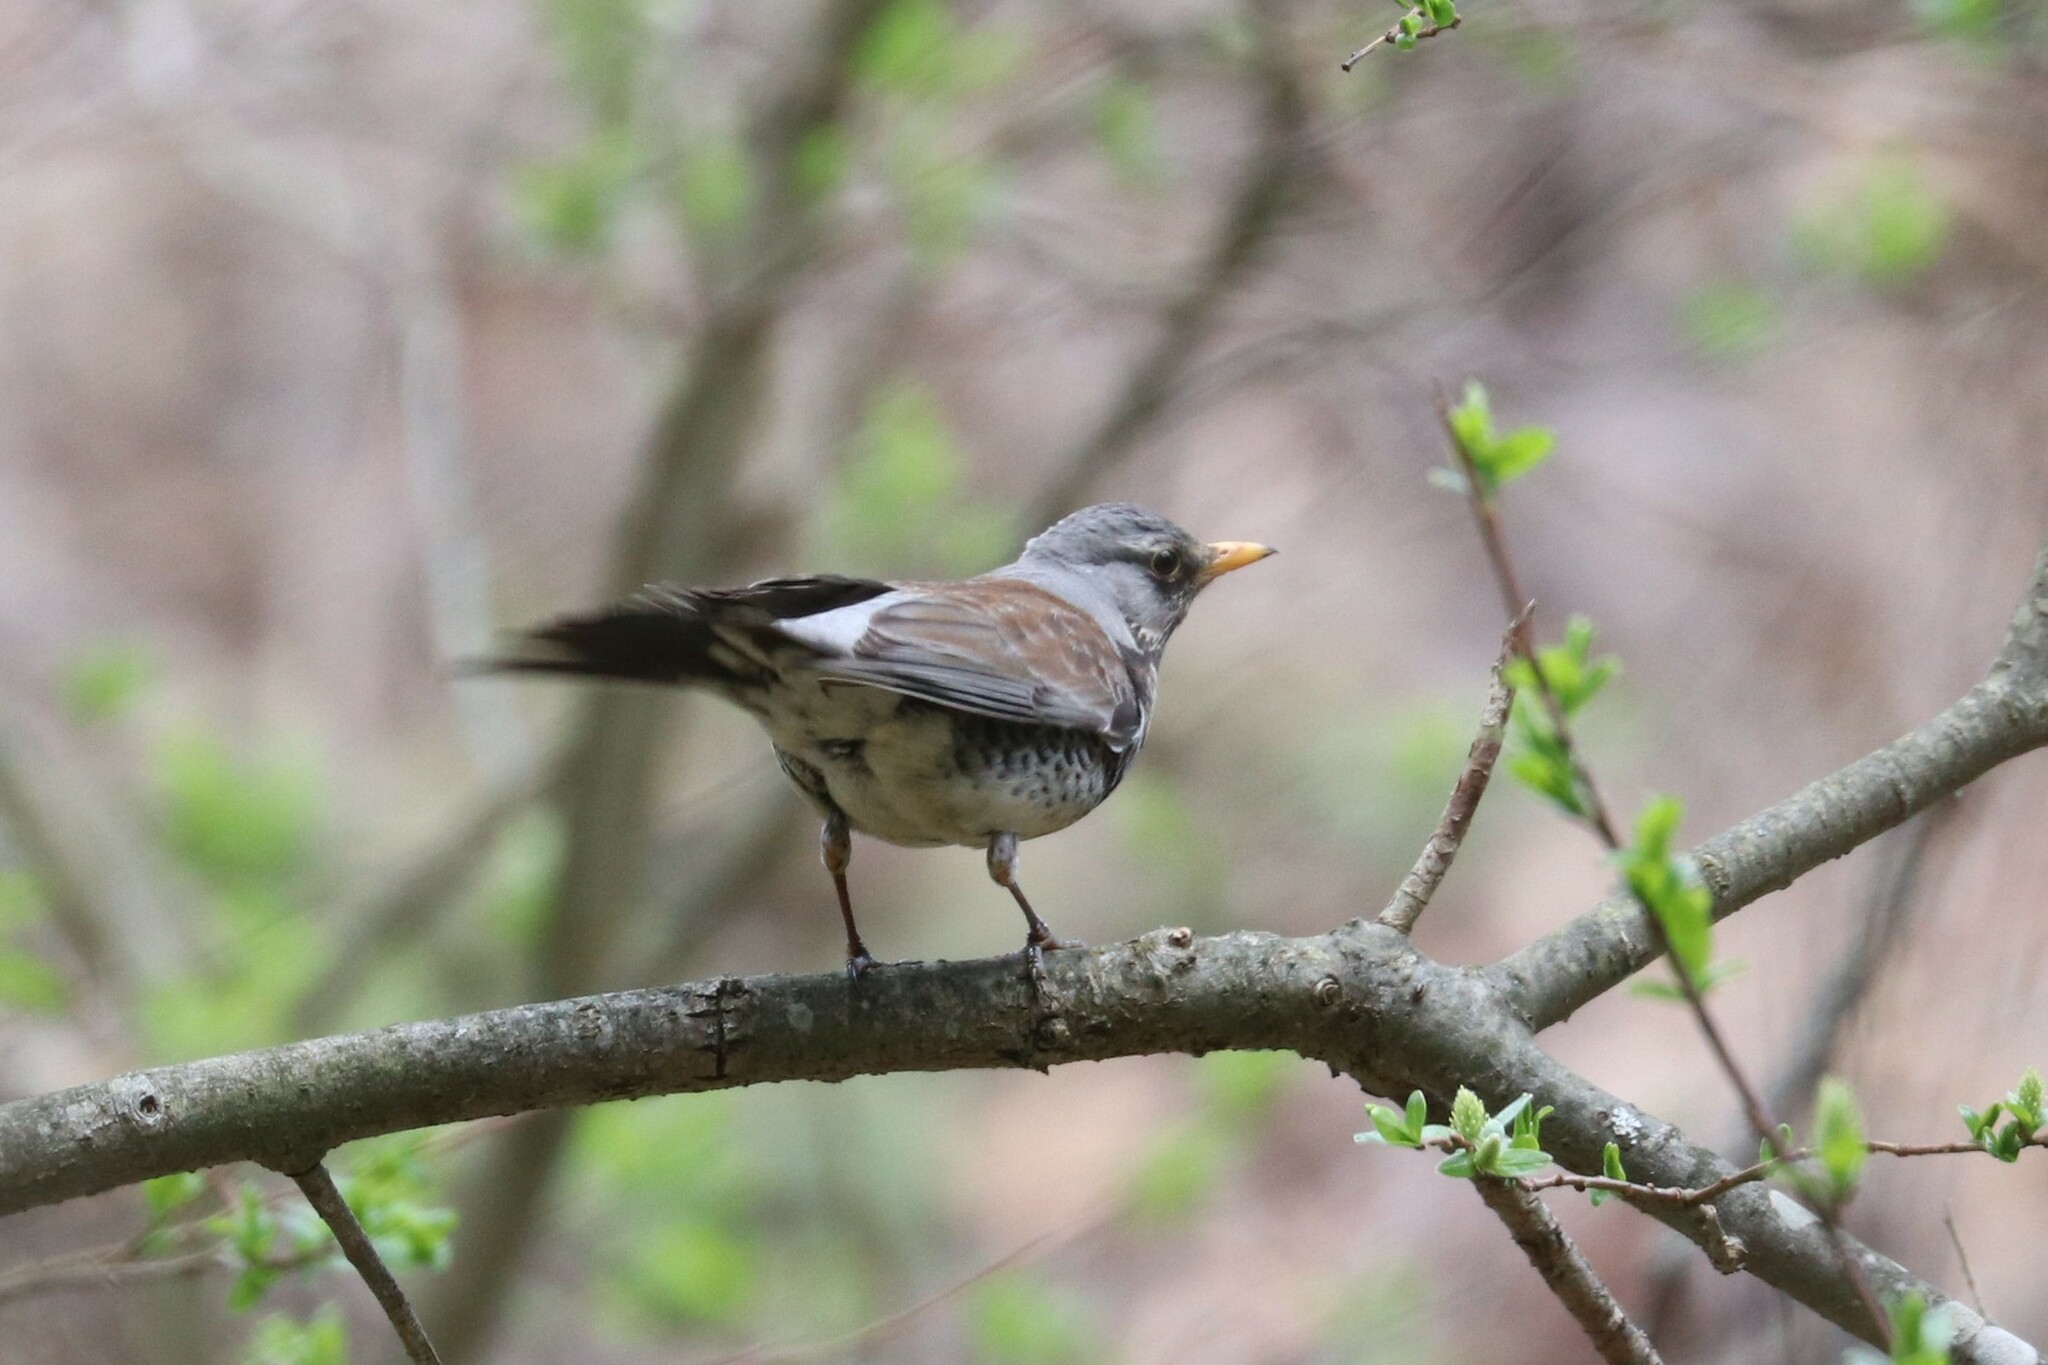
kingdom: Animalia
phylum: Chordata
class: Aves
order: Passeriformes
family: Turdidae
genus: Turdus
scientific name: Turdus pilaris
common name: Fieldfare
